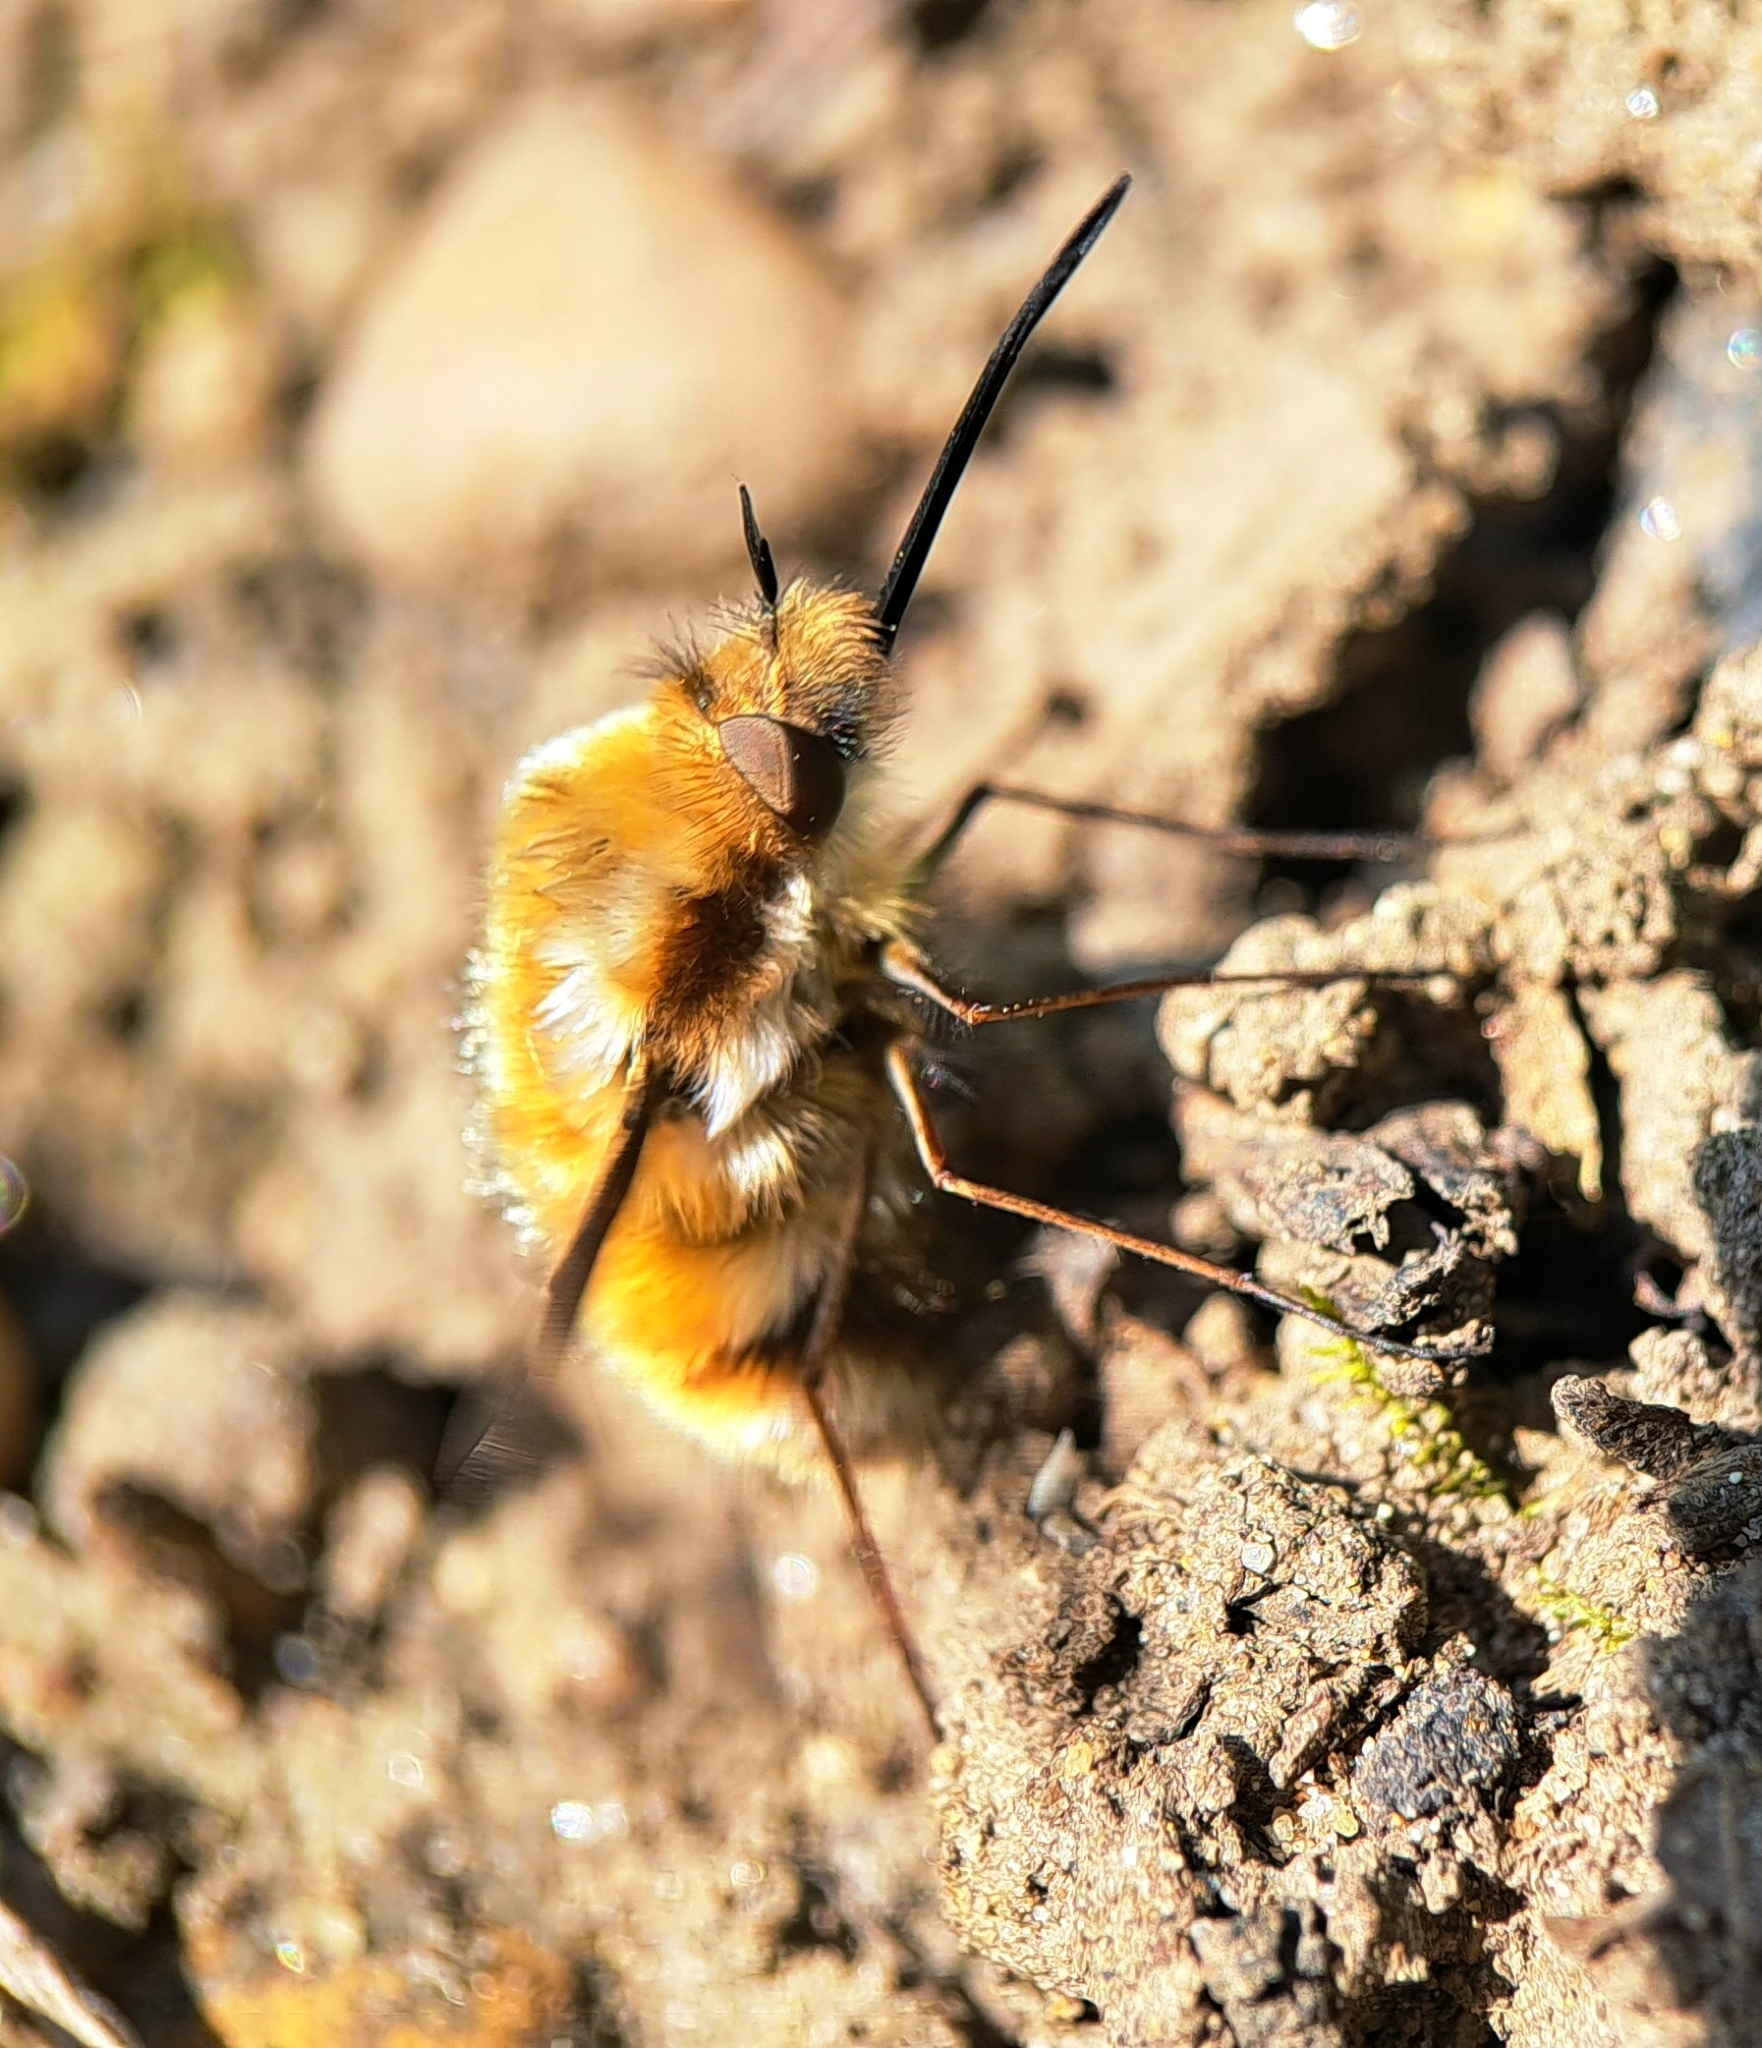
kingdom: Animalia
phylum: Arthropoda
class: Insecta
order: Diptera
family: Bombyliidae
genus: Bombylius
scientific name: Bombylius major
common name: Bee fly
